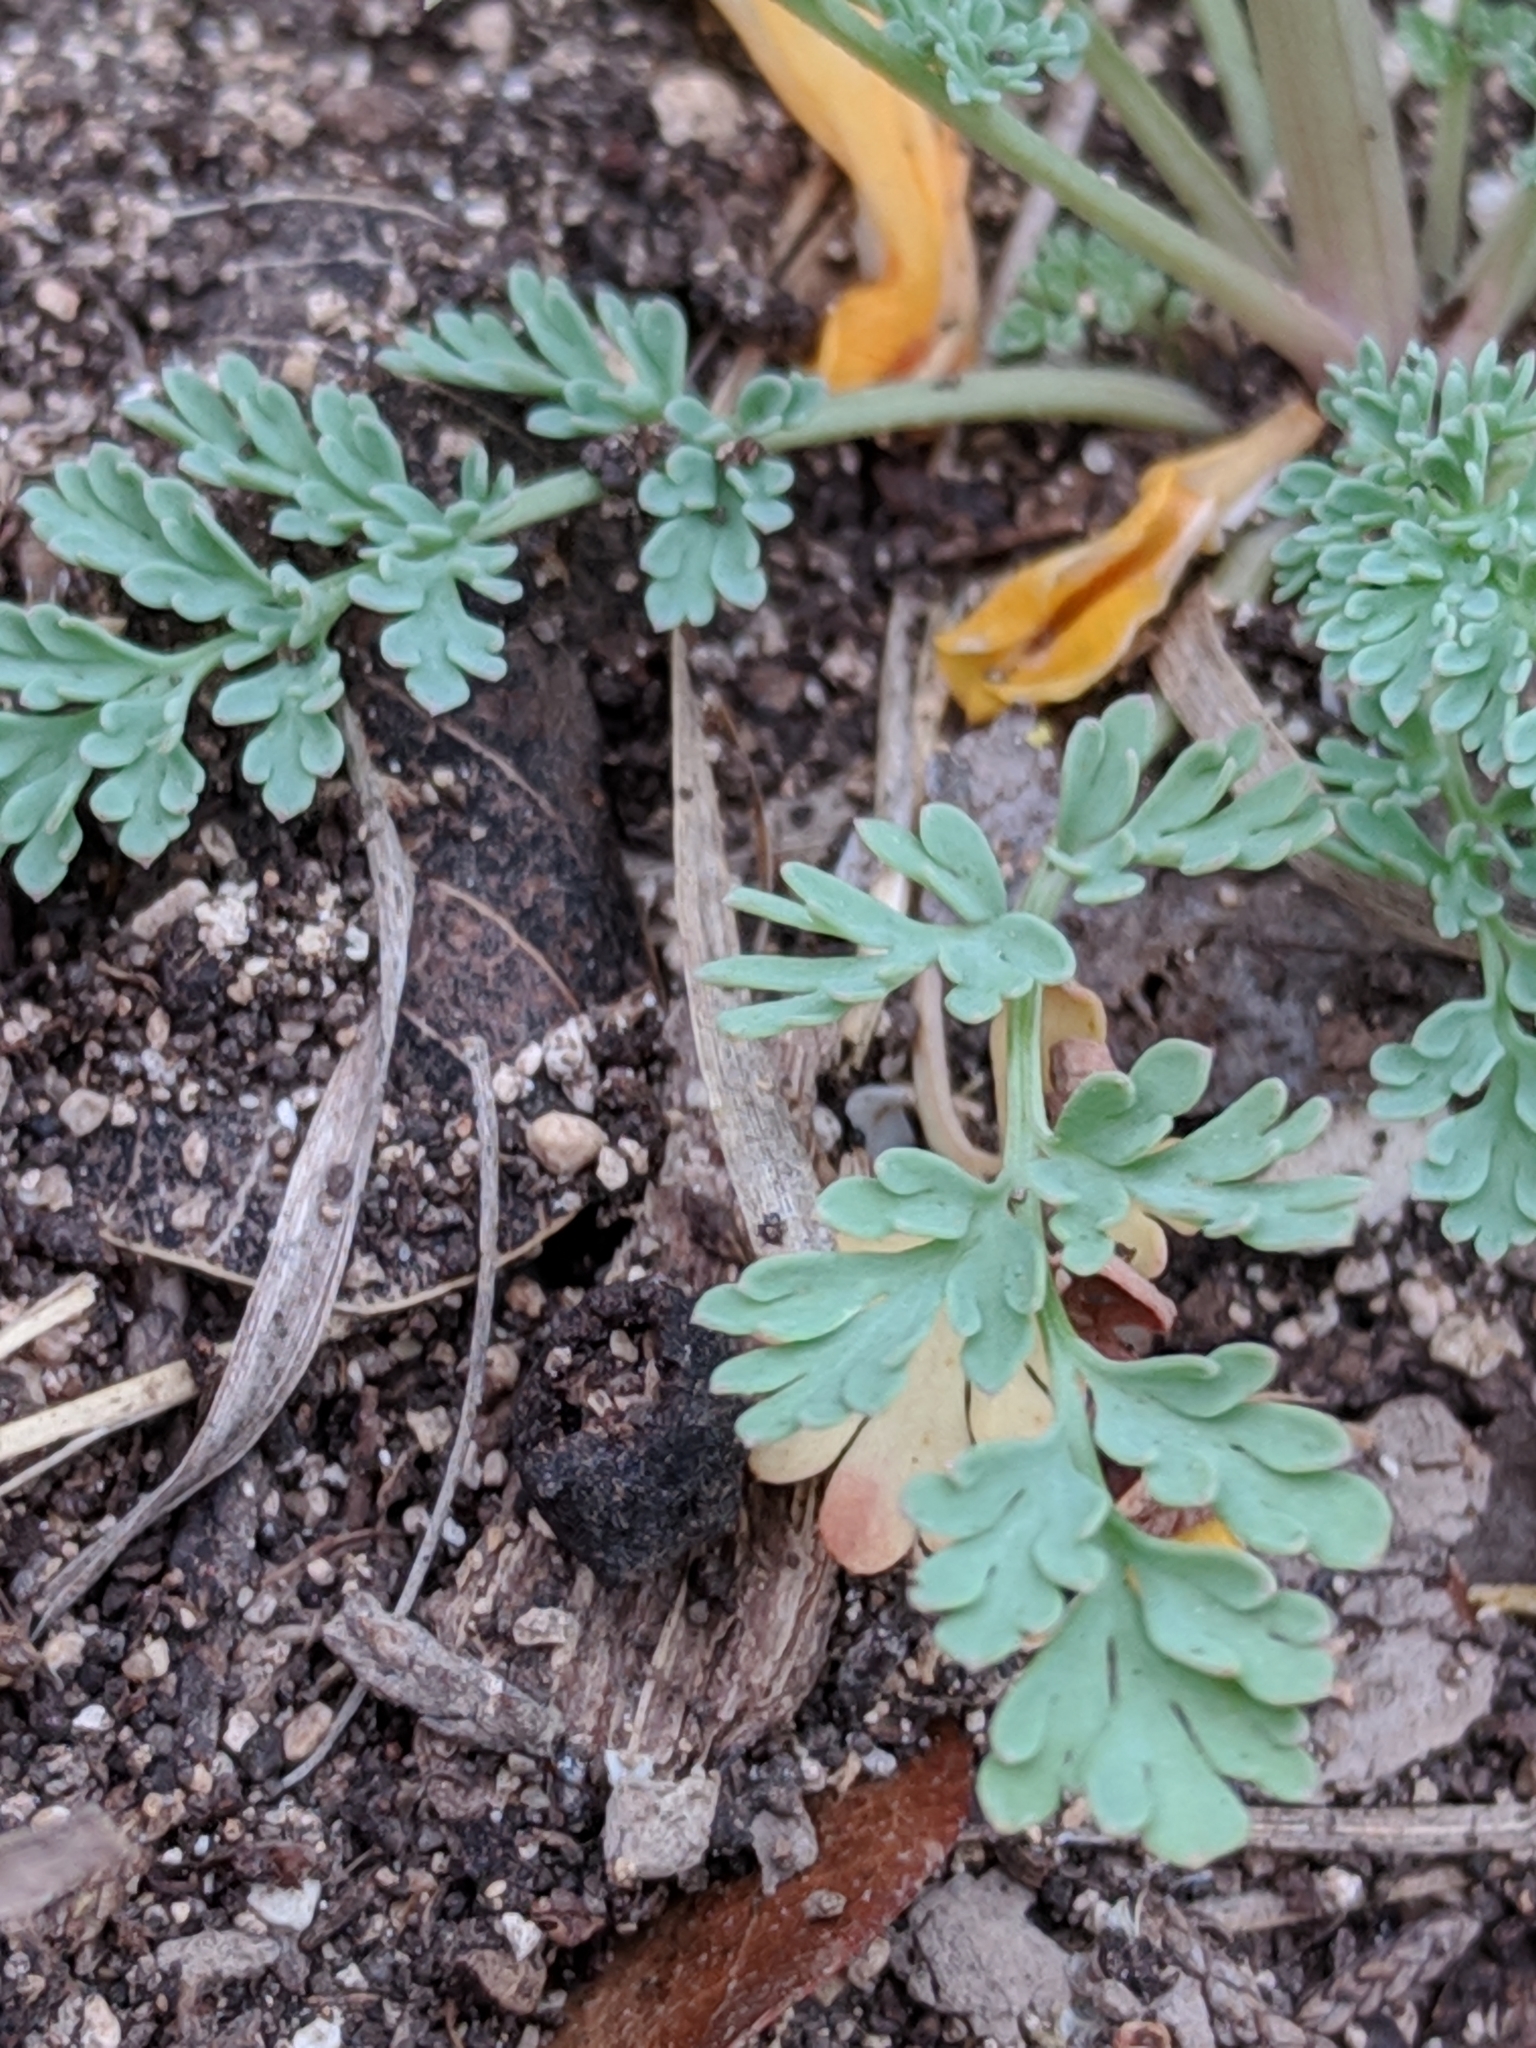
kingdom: Plantae
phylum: Tracheophyta
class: Magnoliopsida
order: Ranunculales
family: Papaveraceae
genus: Corydalis
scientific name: Corydalis curvisiliqua
